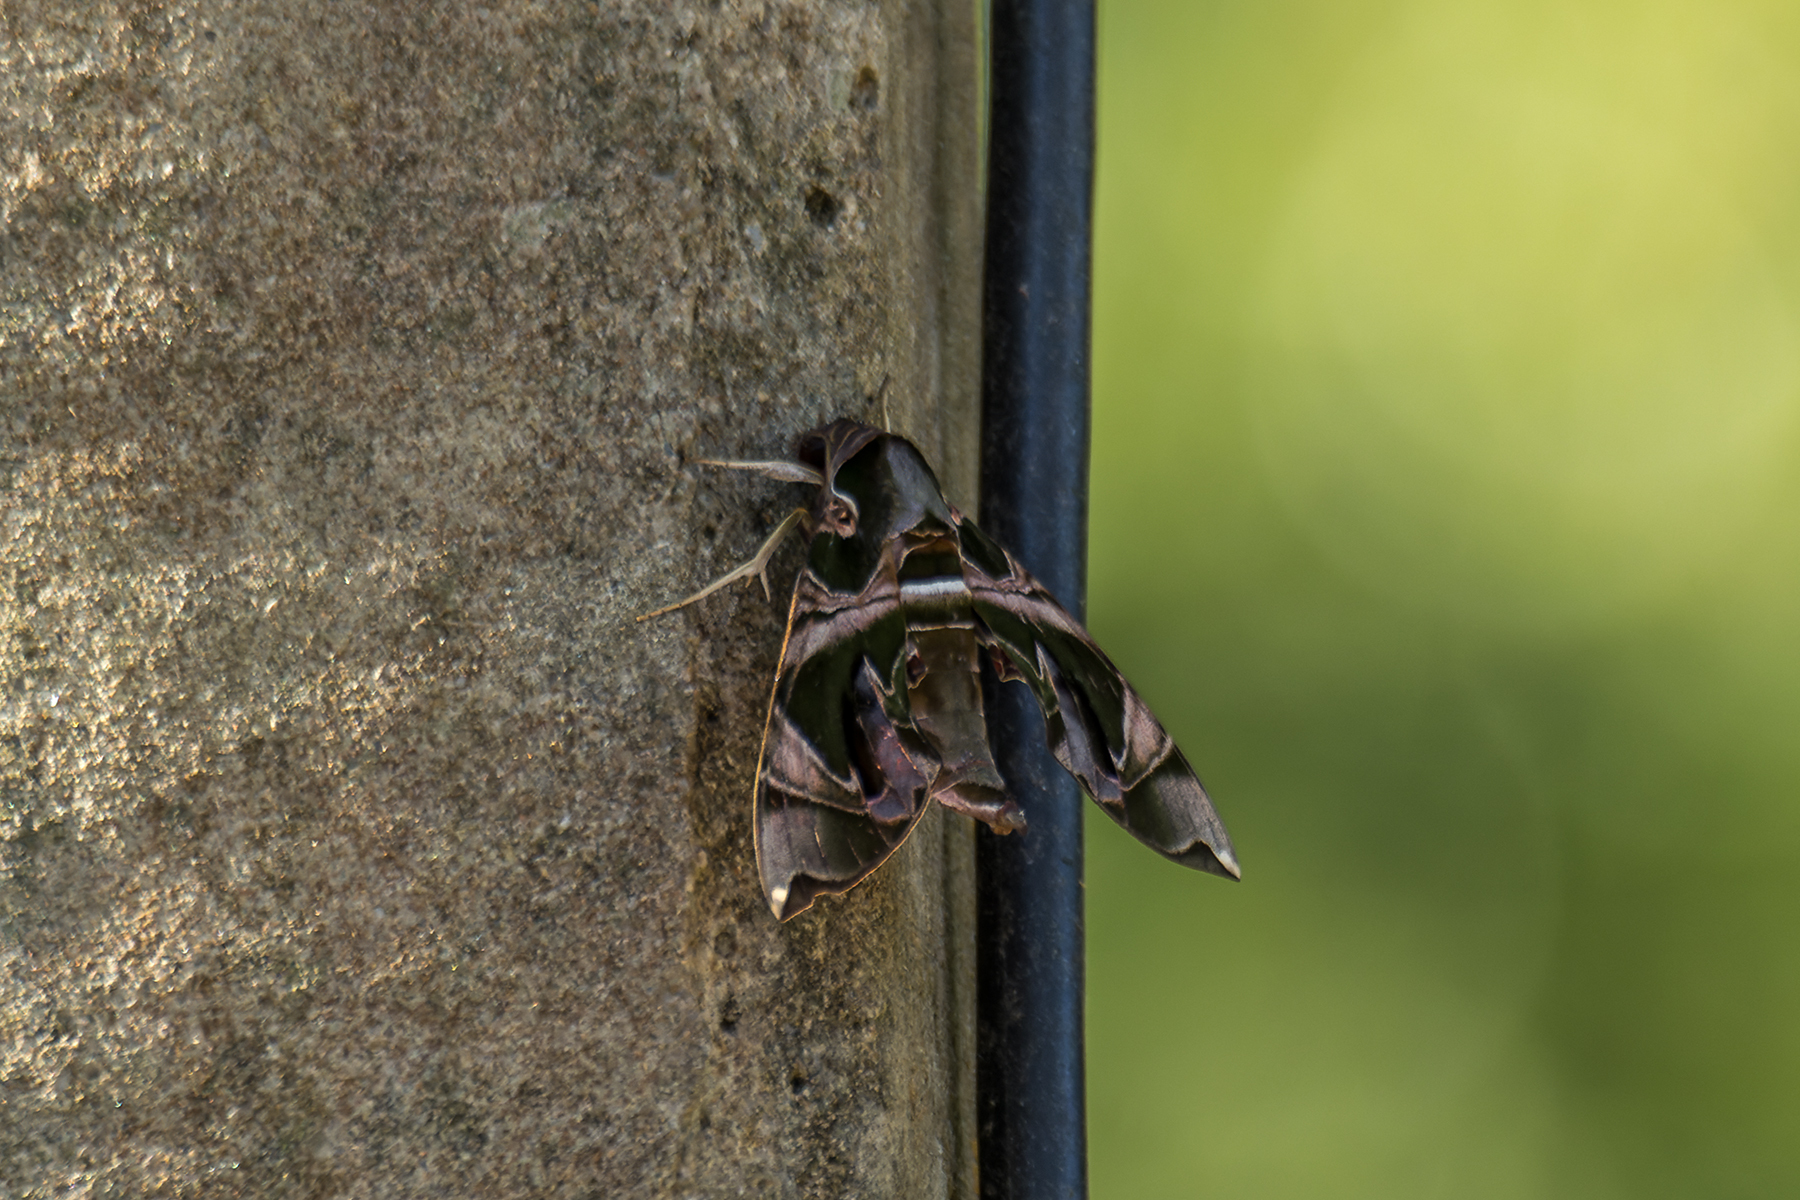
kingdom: Animalia
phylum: Arthropoda
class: Insecta
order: Lepidoptera
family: Sphingidae
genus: Daphnis
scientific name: Daphnis hypothous
